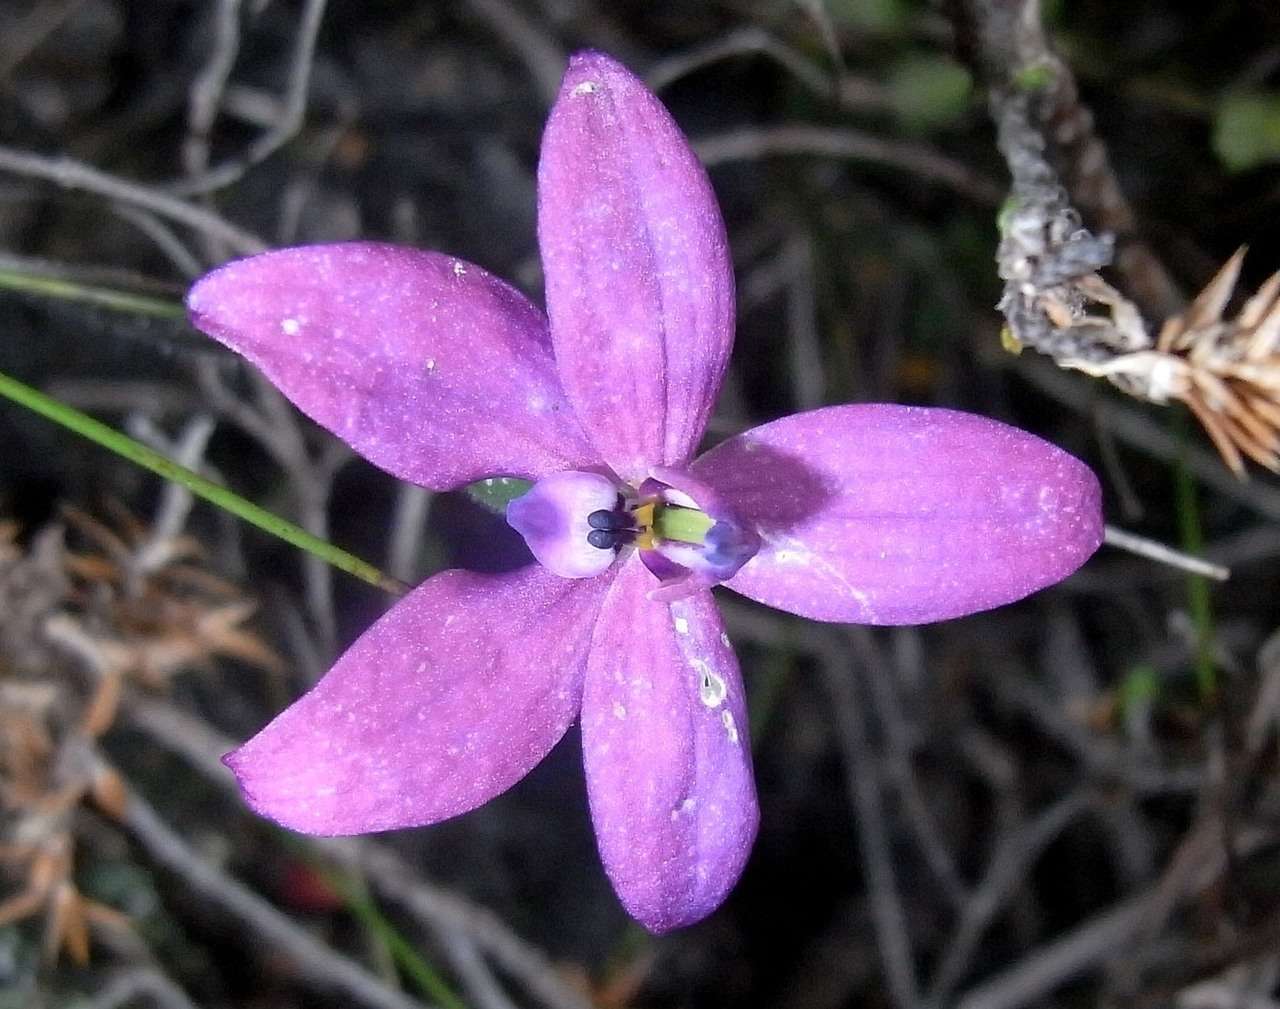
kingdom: Plantae
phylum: Tracheophyta
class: Liliopsida
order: Asparagales
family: Orchidaceae
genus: Caladenia
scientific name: Caladenia minorata
